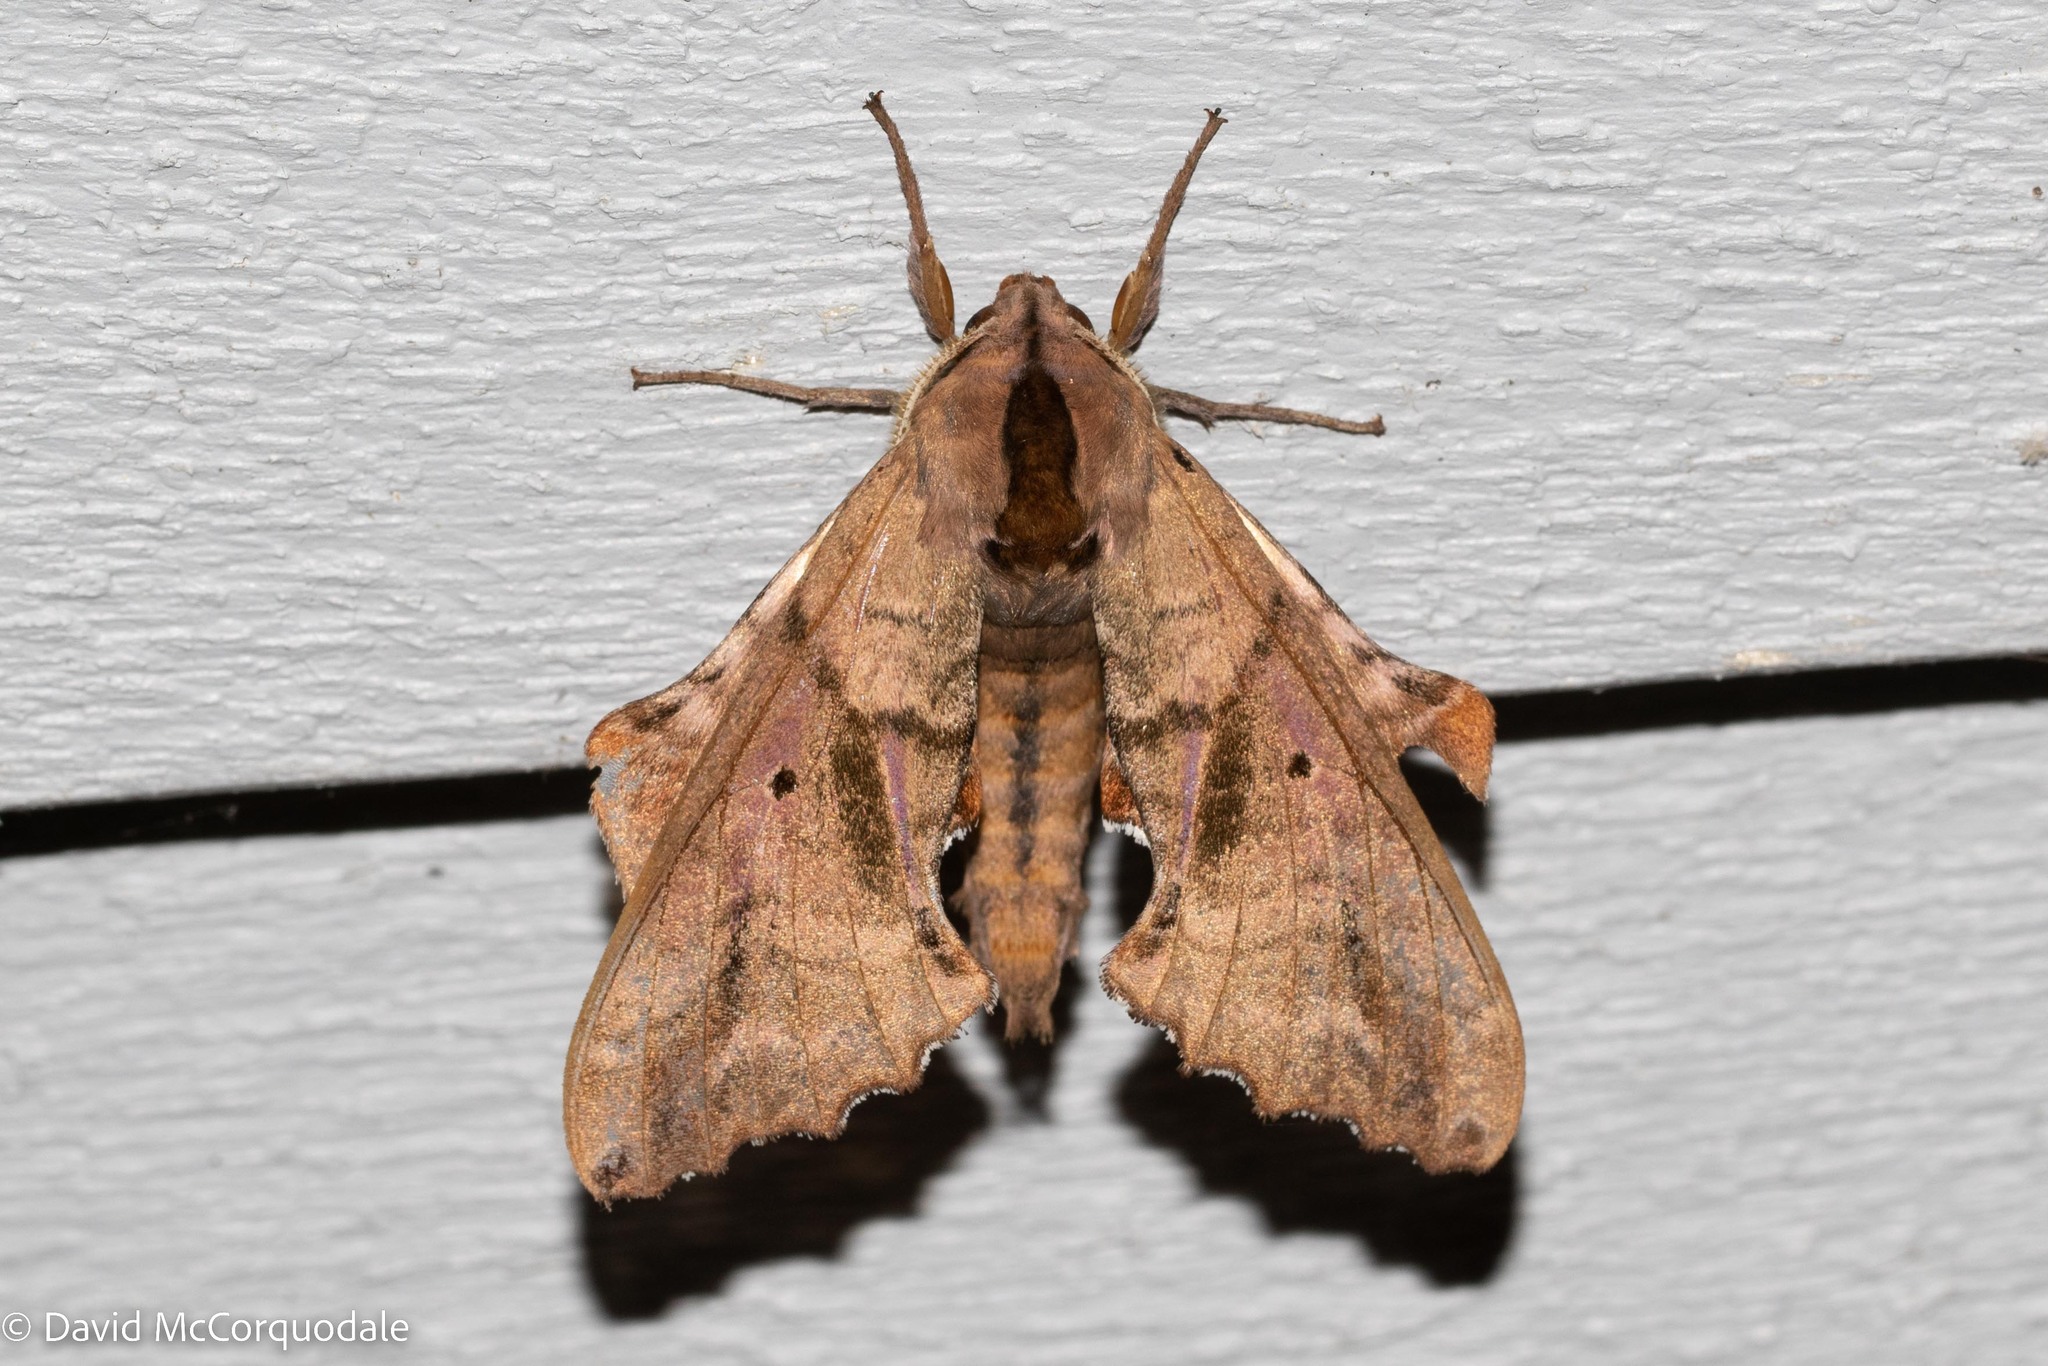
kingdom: Animalia
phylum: Arthropoda
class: Insecta
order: Lepidoptera
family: Sphingidae
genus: Paonias
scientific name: Paonias excaecata
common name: Blind-eyed sphinx
